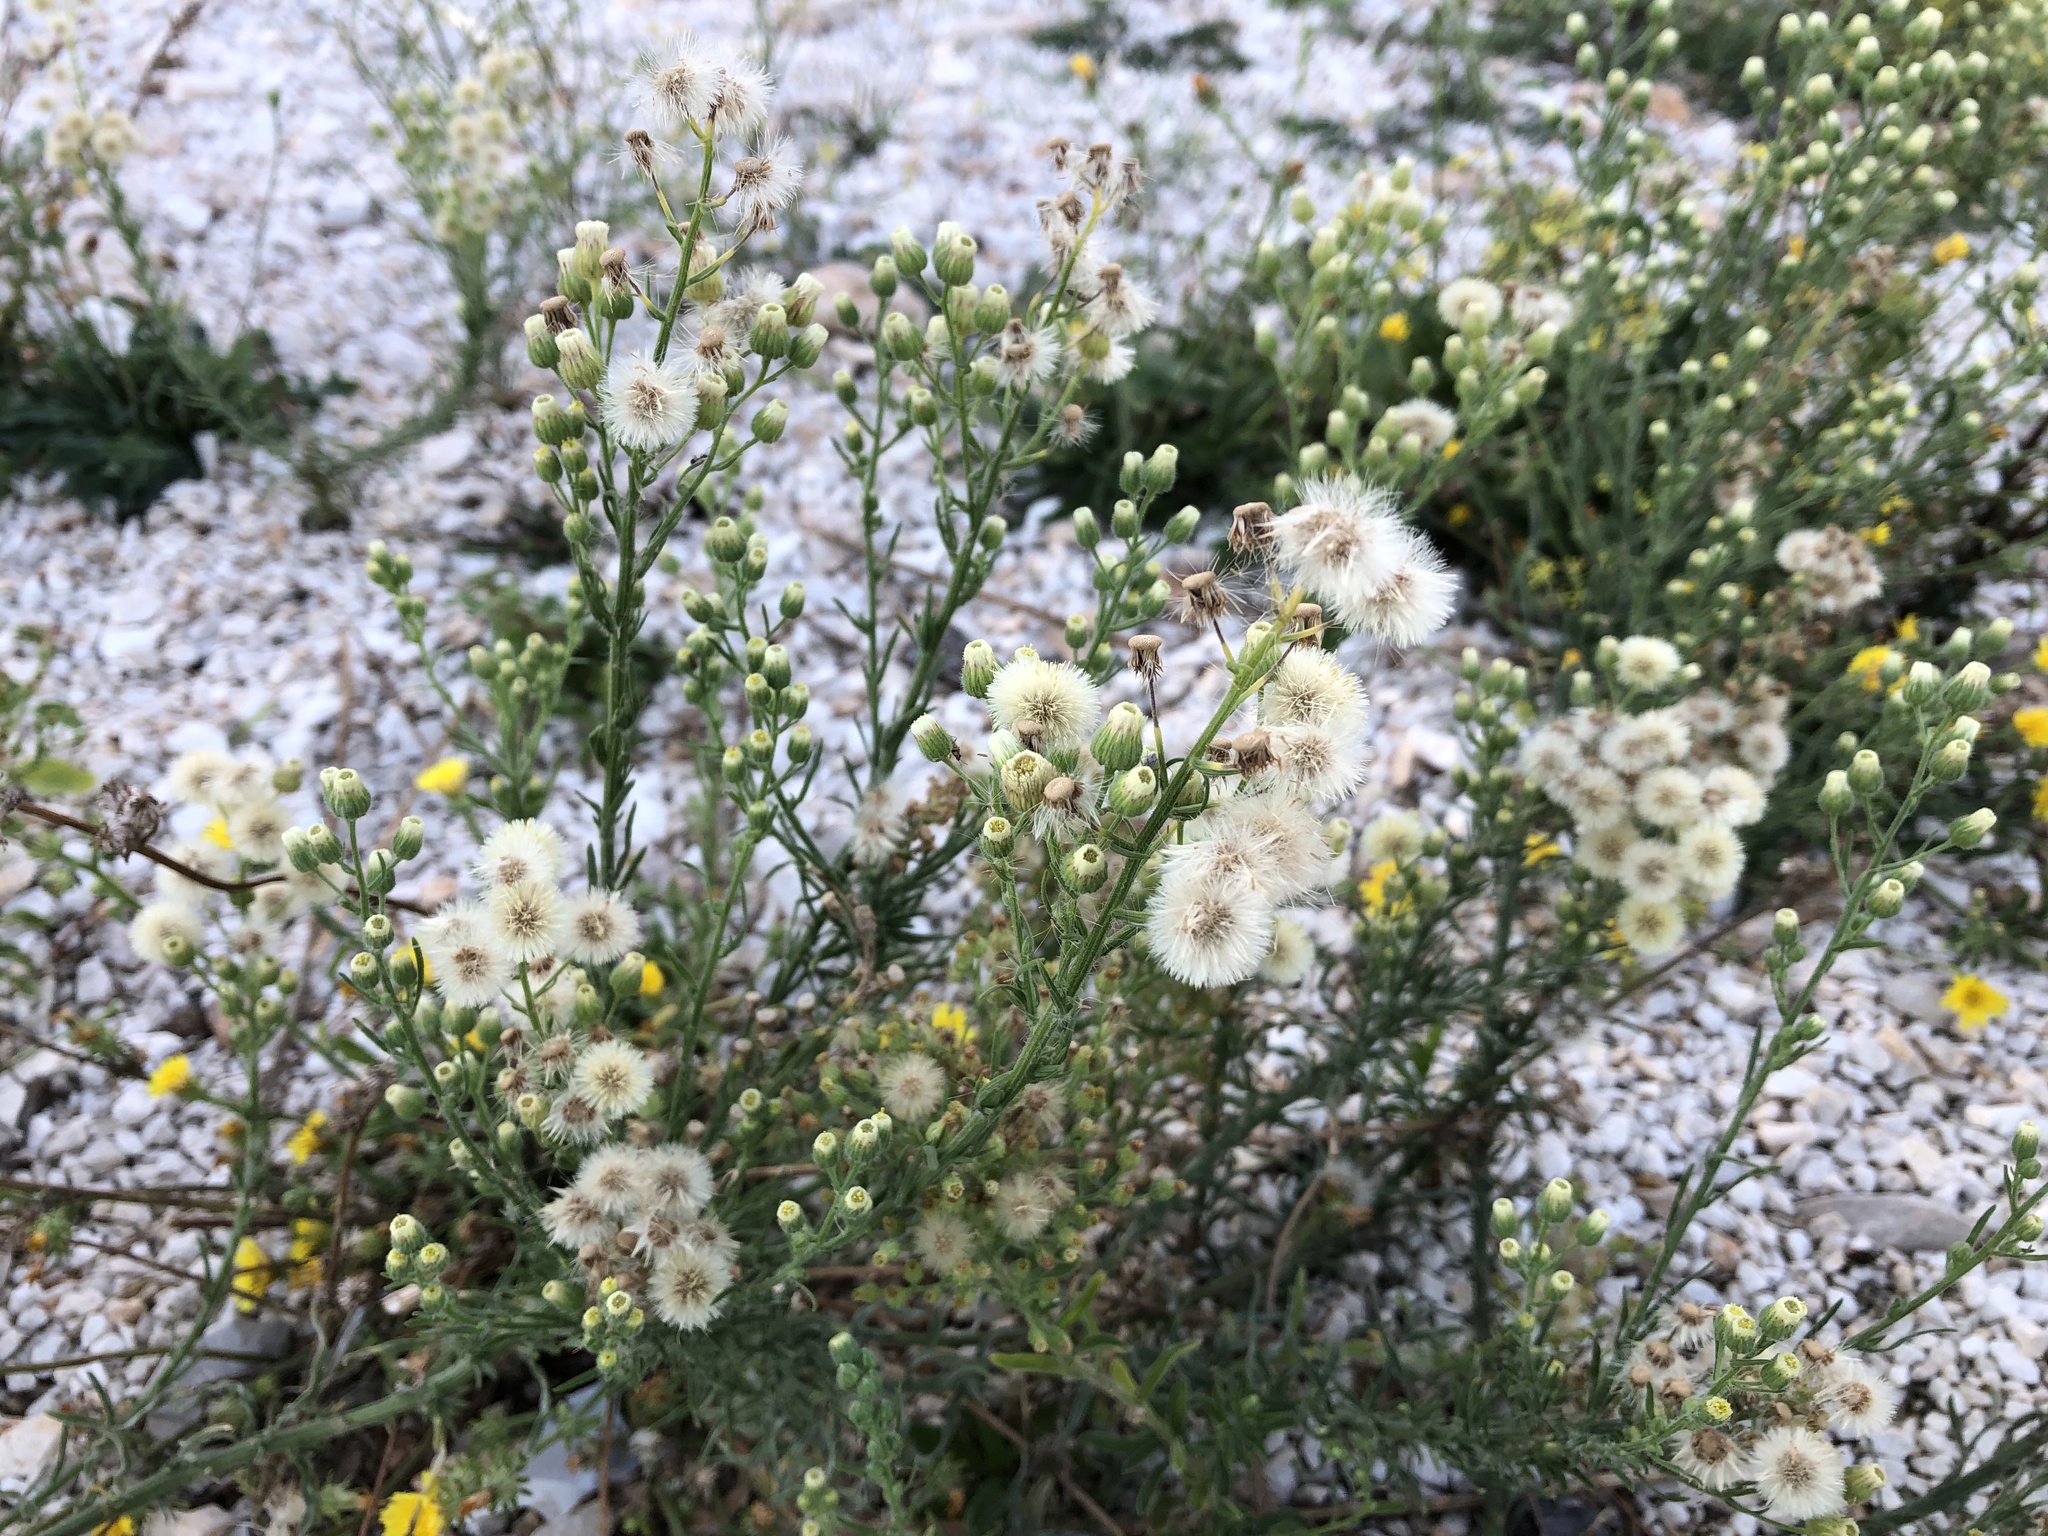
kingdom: Plantae
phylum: Tracheophyta
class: Magnoliopsida
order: Asterales
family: Asteraceae
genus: Erigeron
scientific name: Erigeron bonariensis
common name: Argentine fleabane
